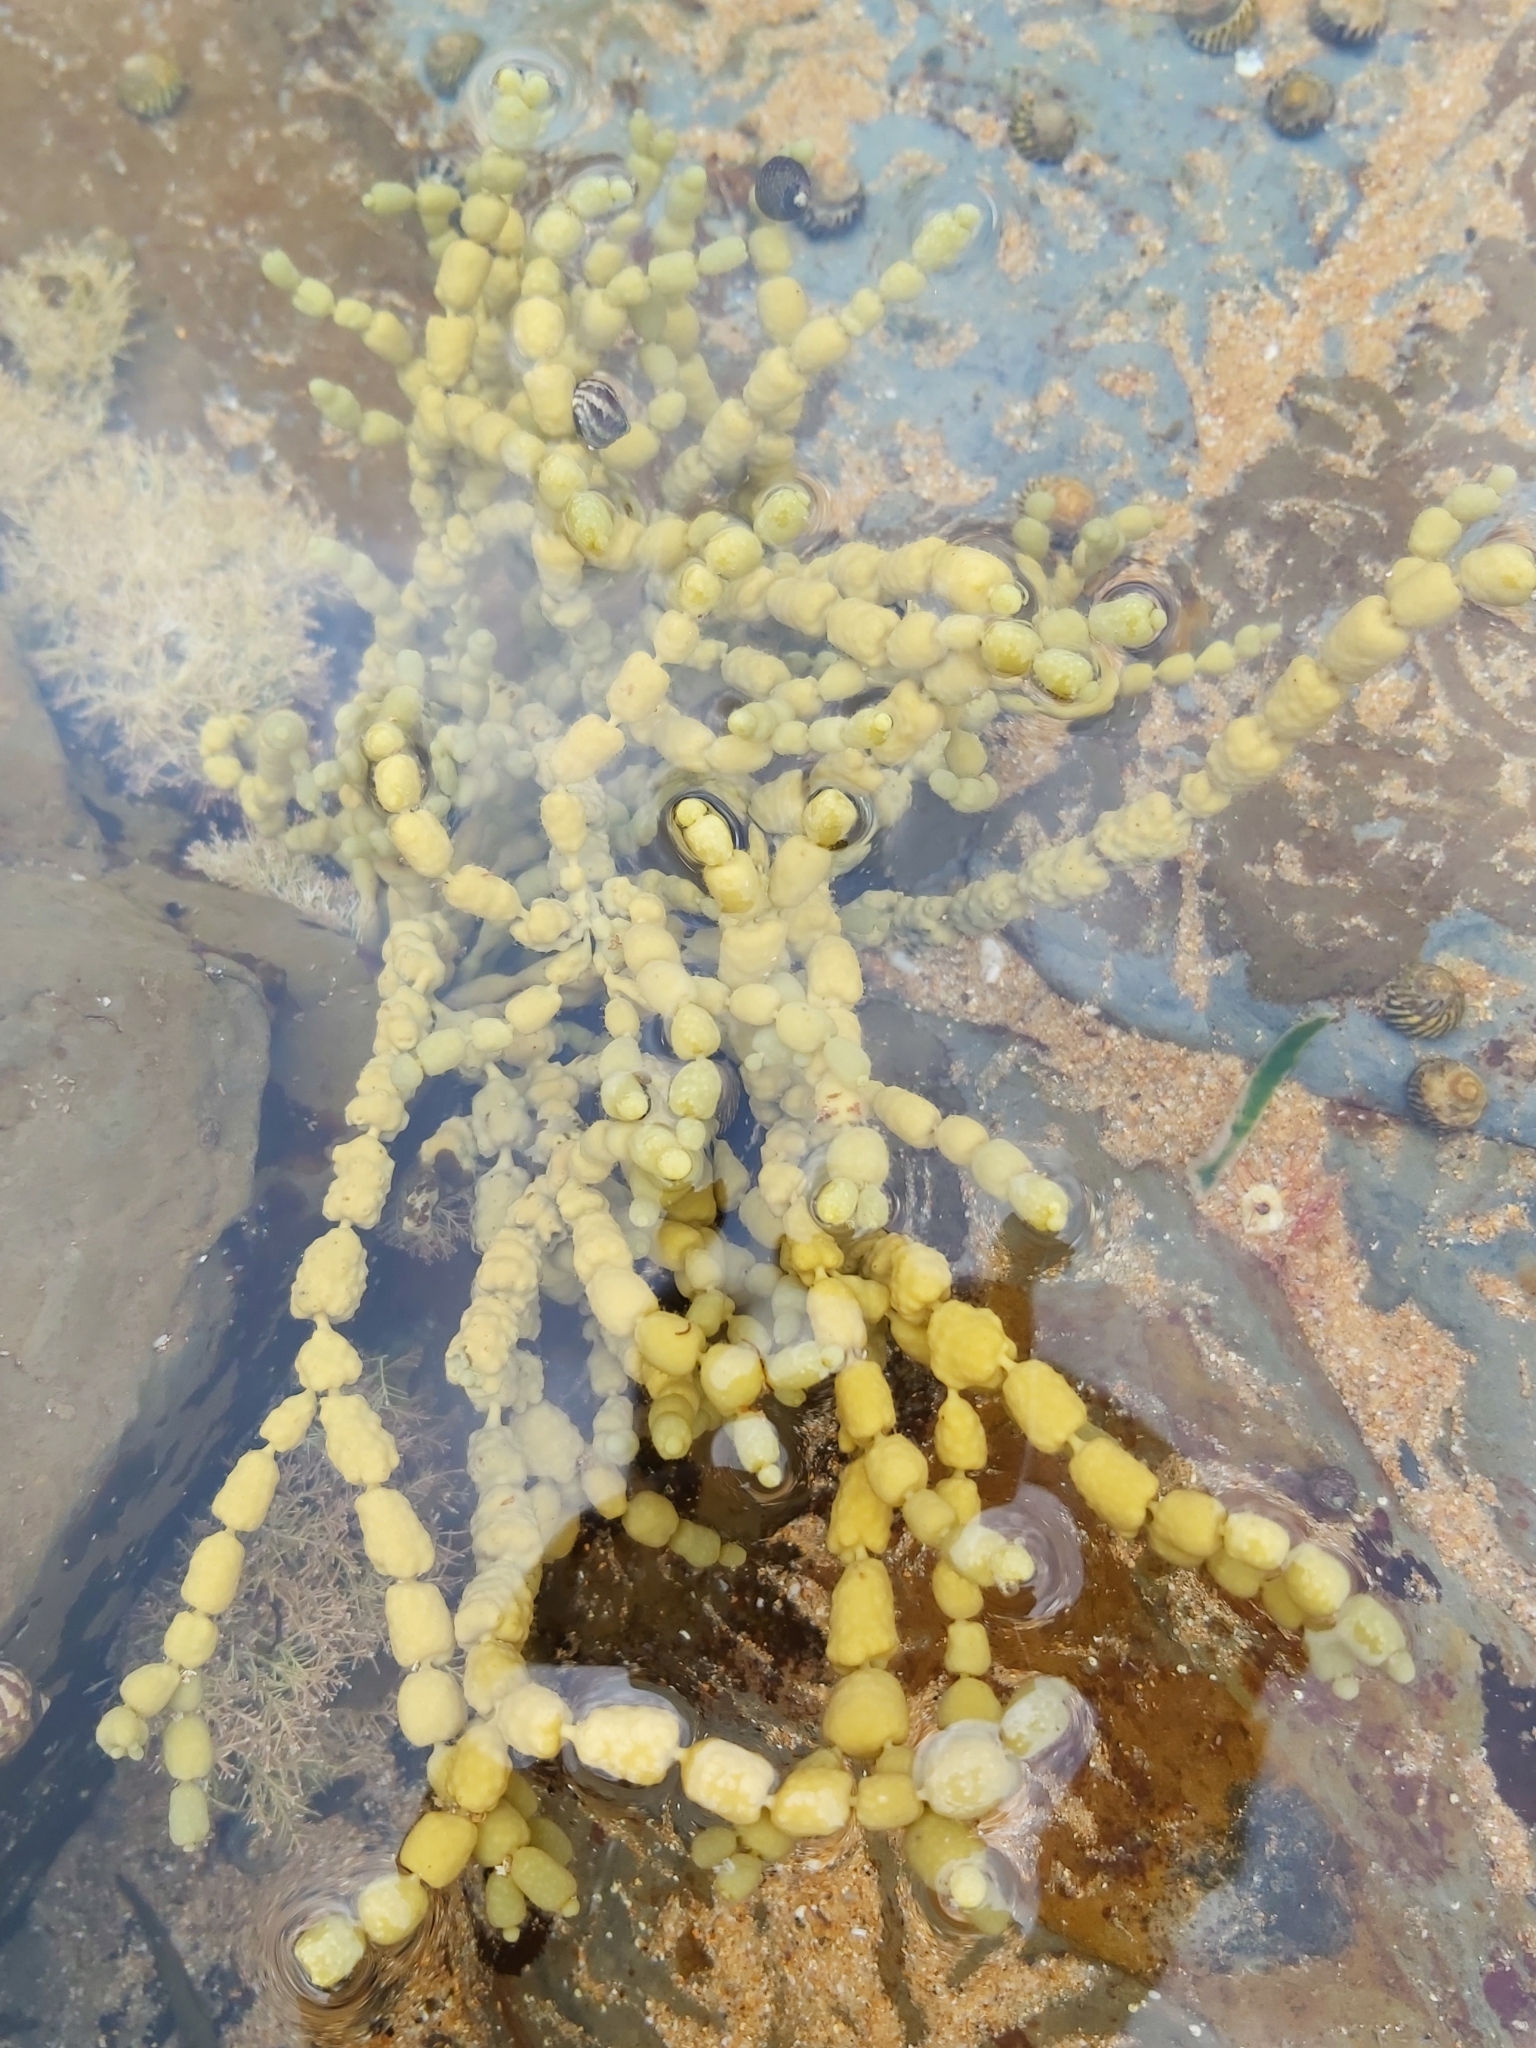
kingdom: Chromista
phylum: Ochrophyta
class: Phaeophyceae
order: Fucales
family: Hormosiraceae
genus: Hormosira
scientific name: Hormosira banksii
